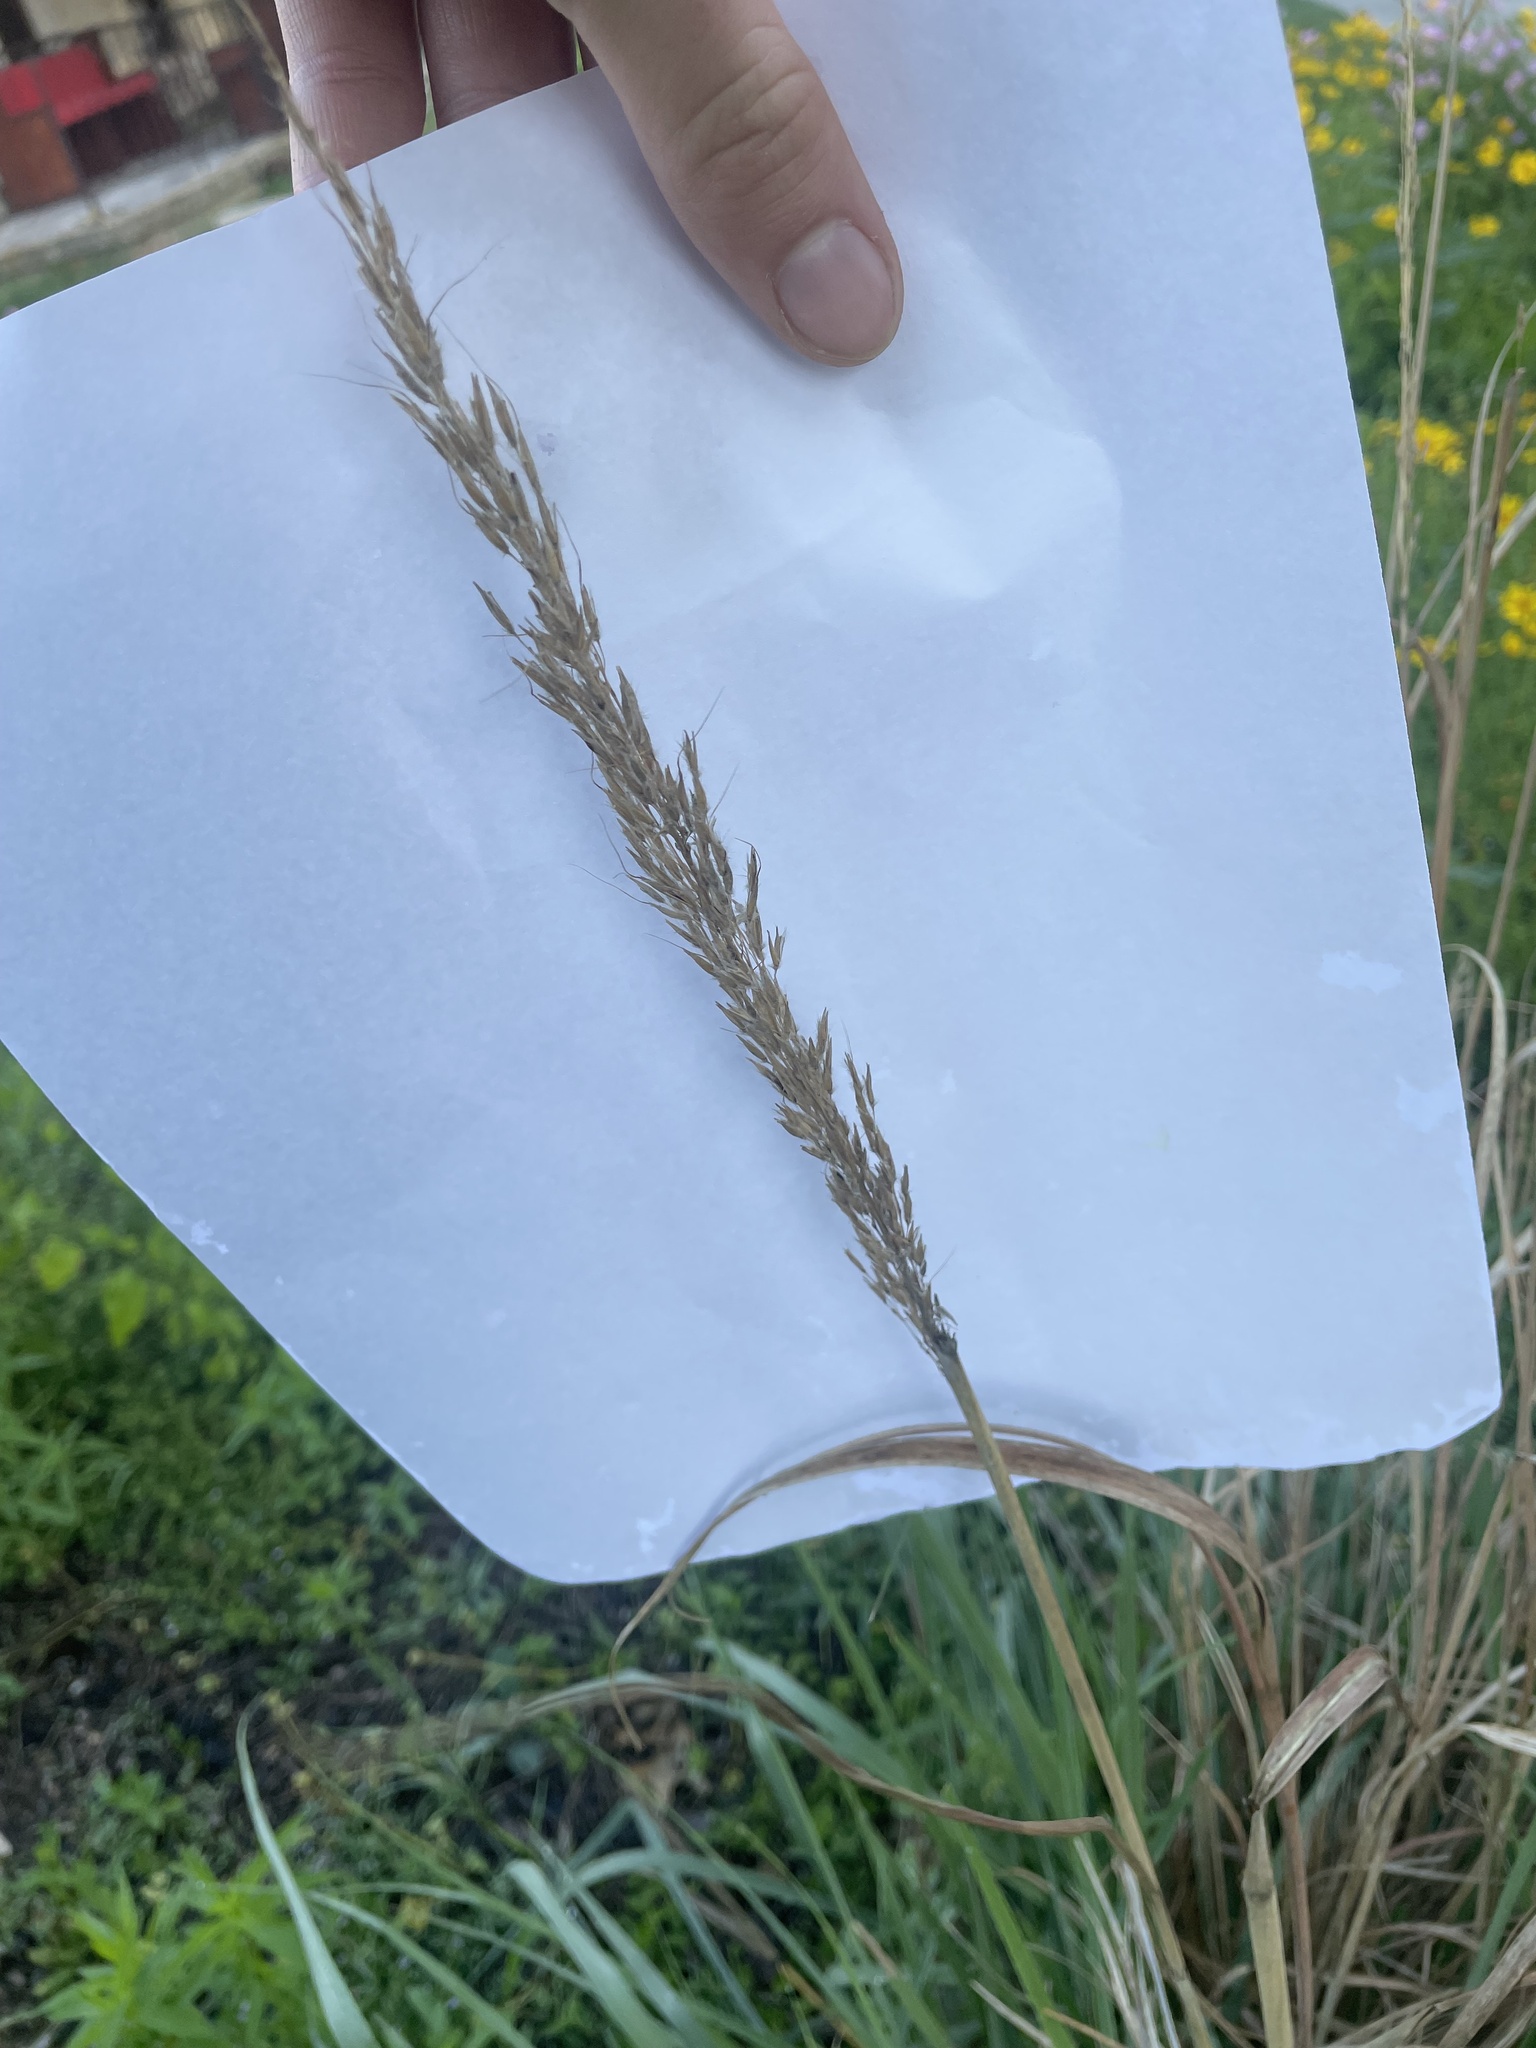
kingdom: Plantae
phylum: Tracheophyta
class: Liliopsida
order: Poales
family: Poaceae
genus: Sorghastrum
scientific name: Sorghastrum nutans
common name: Indian grass
